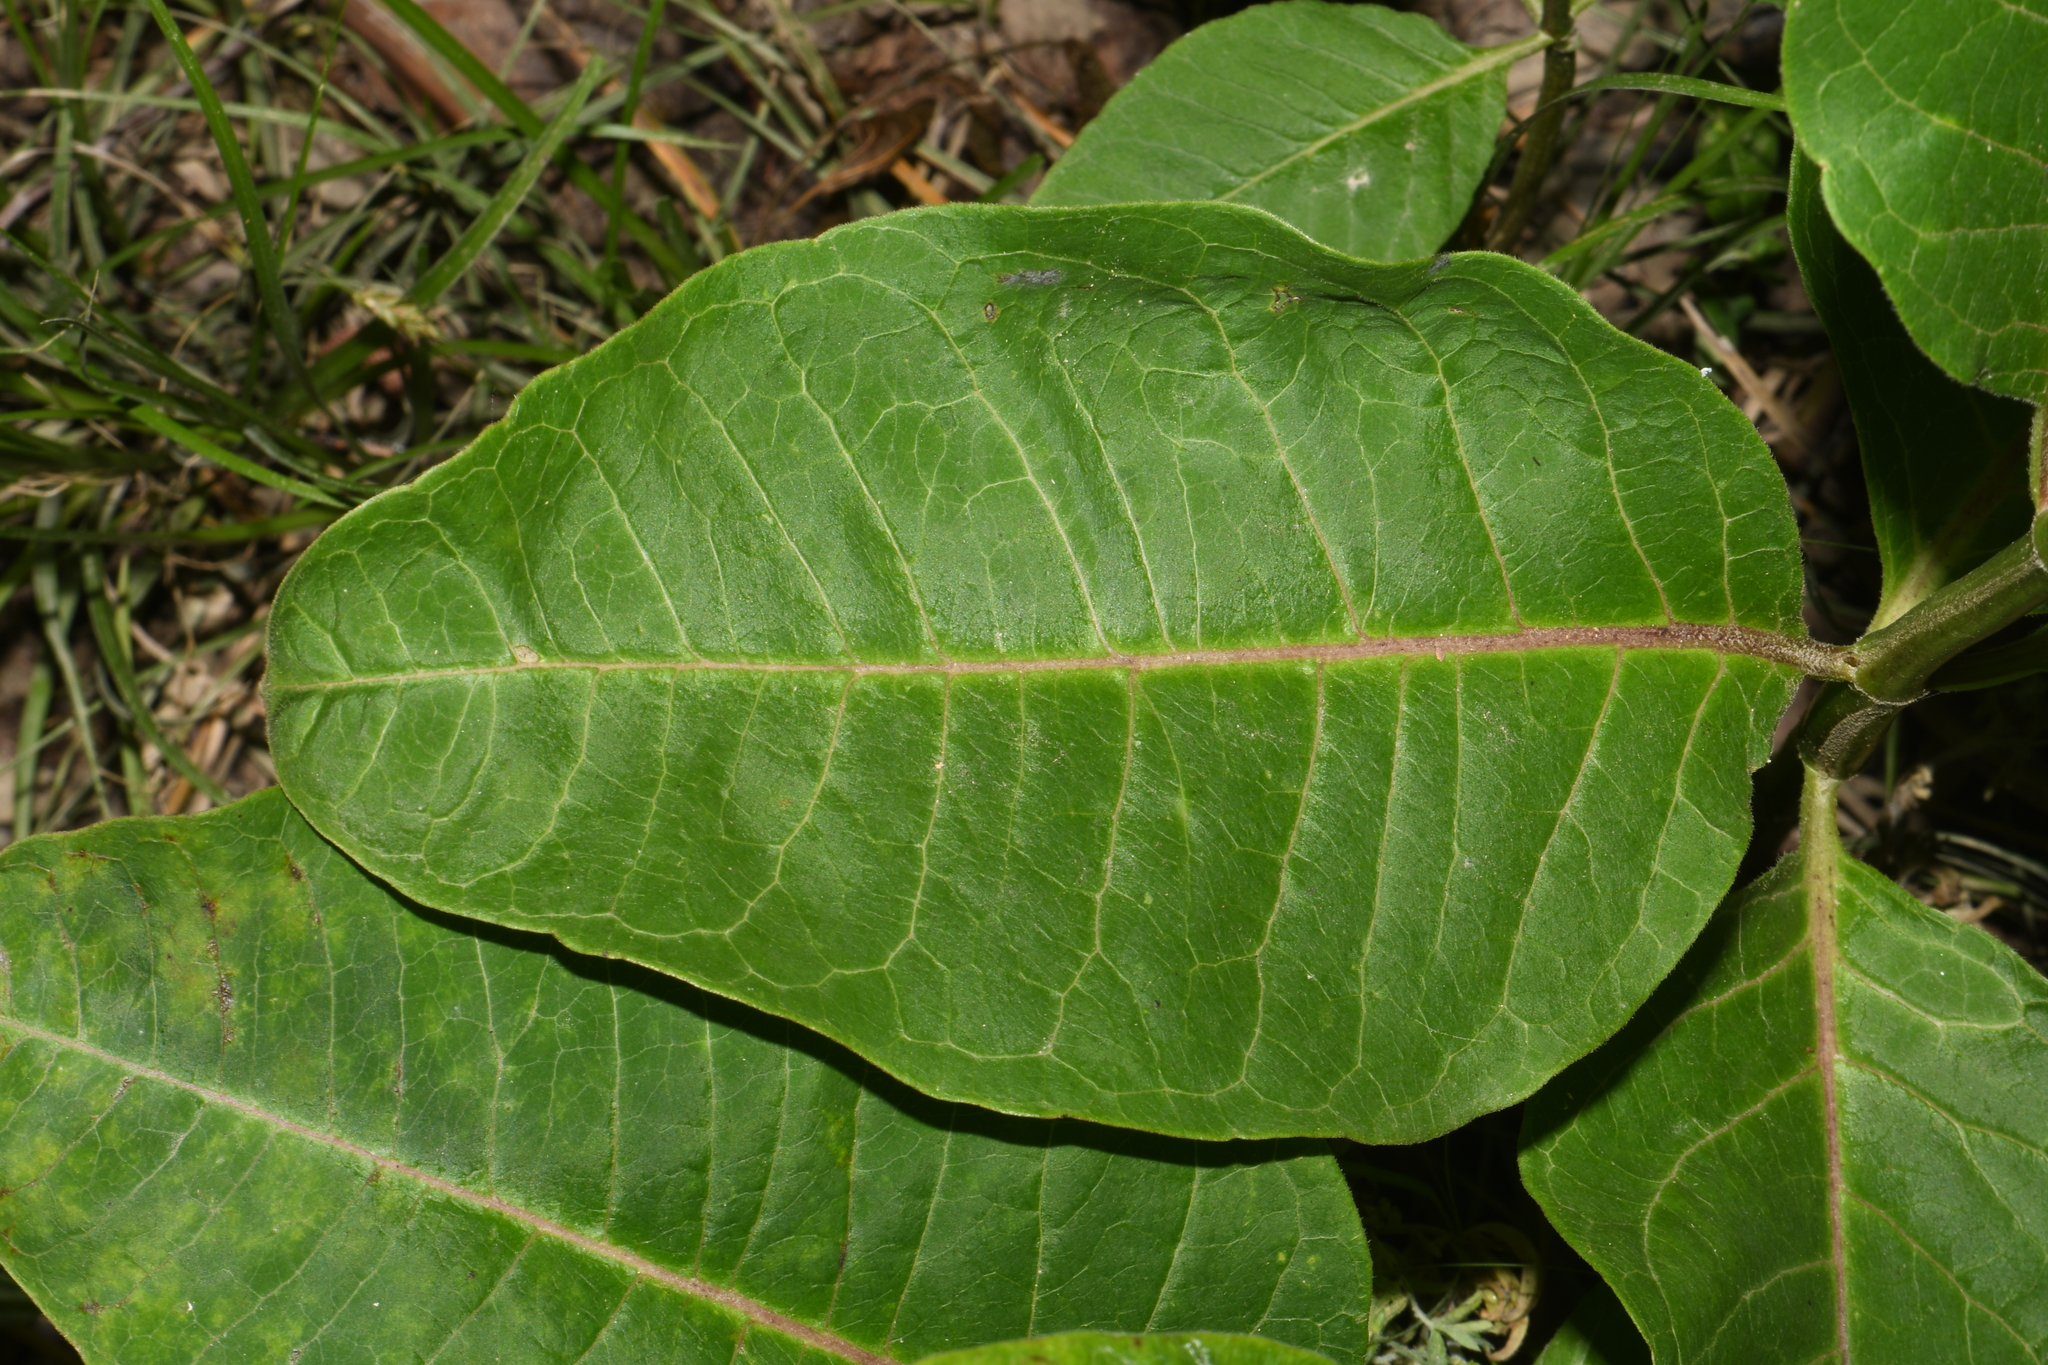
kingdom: Plantae
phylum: Tracheophyta
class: Magnoliopsida
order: Gentianales
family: Apocynaceae
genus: Asclepias
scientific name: Asclepias purpurascens
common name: Purple milkweed
